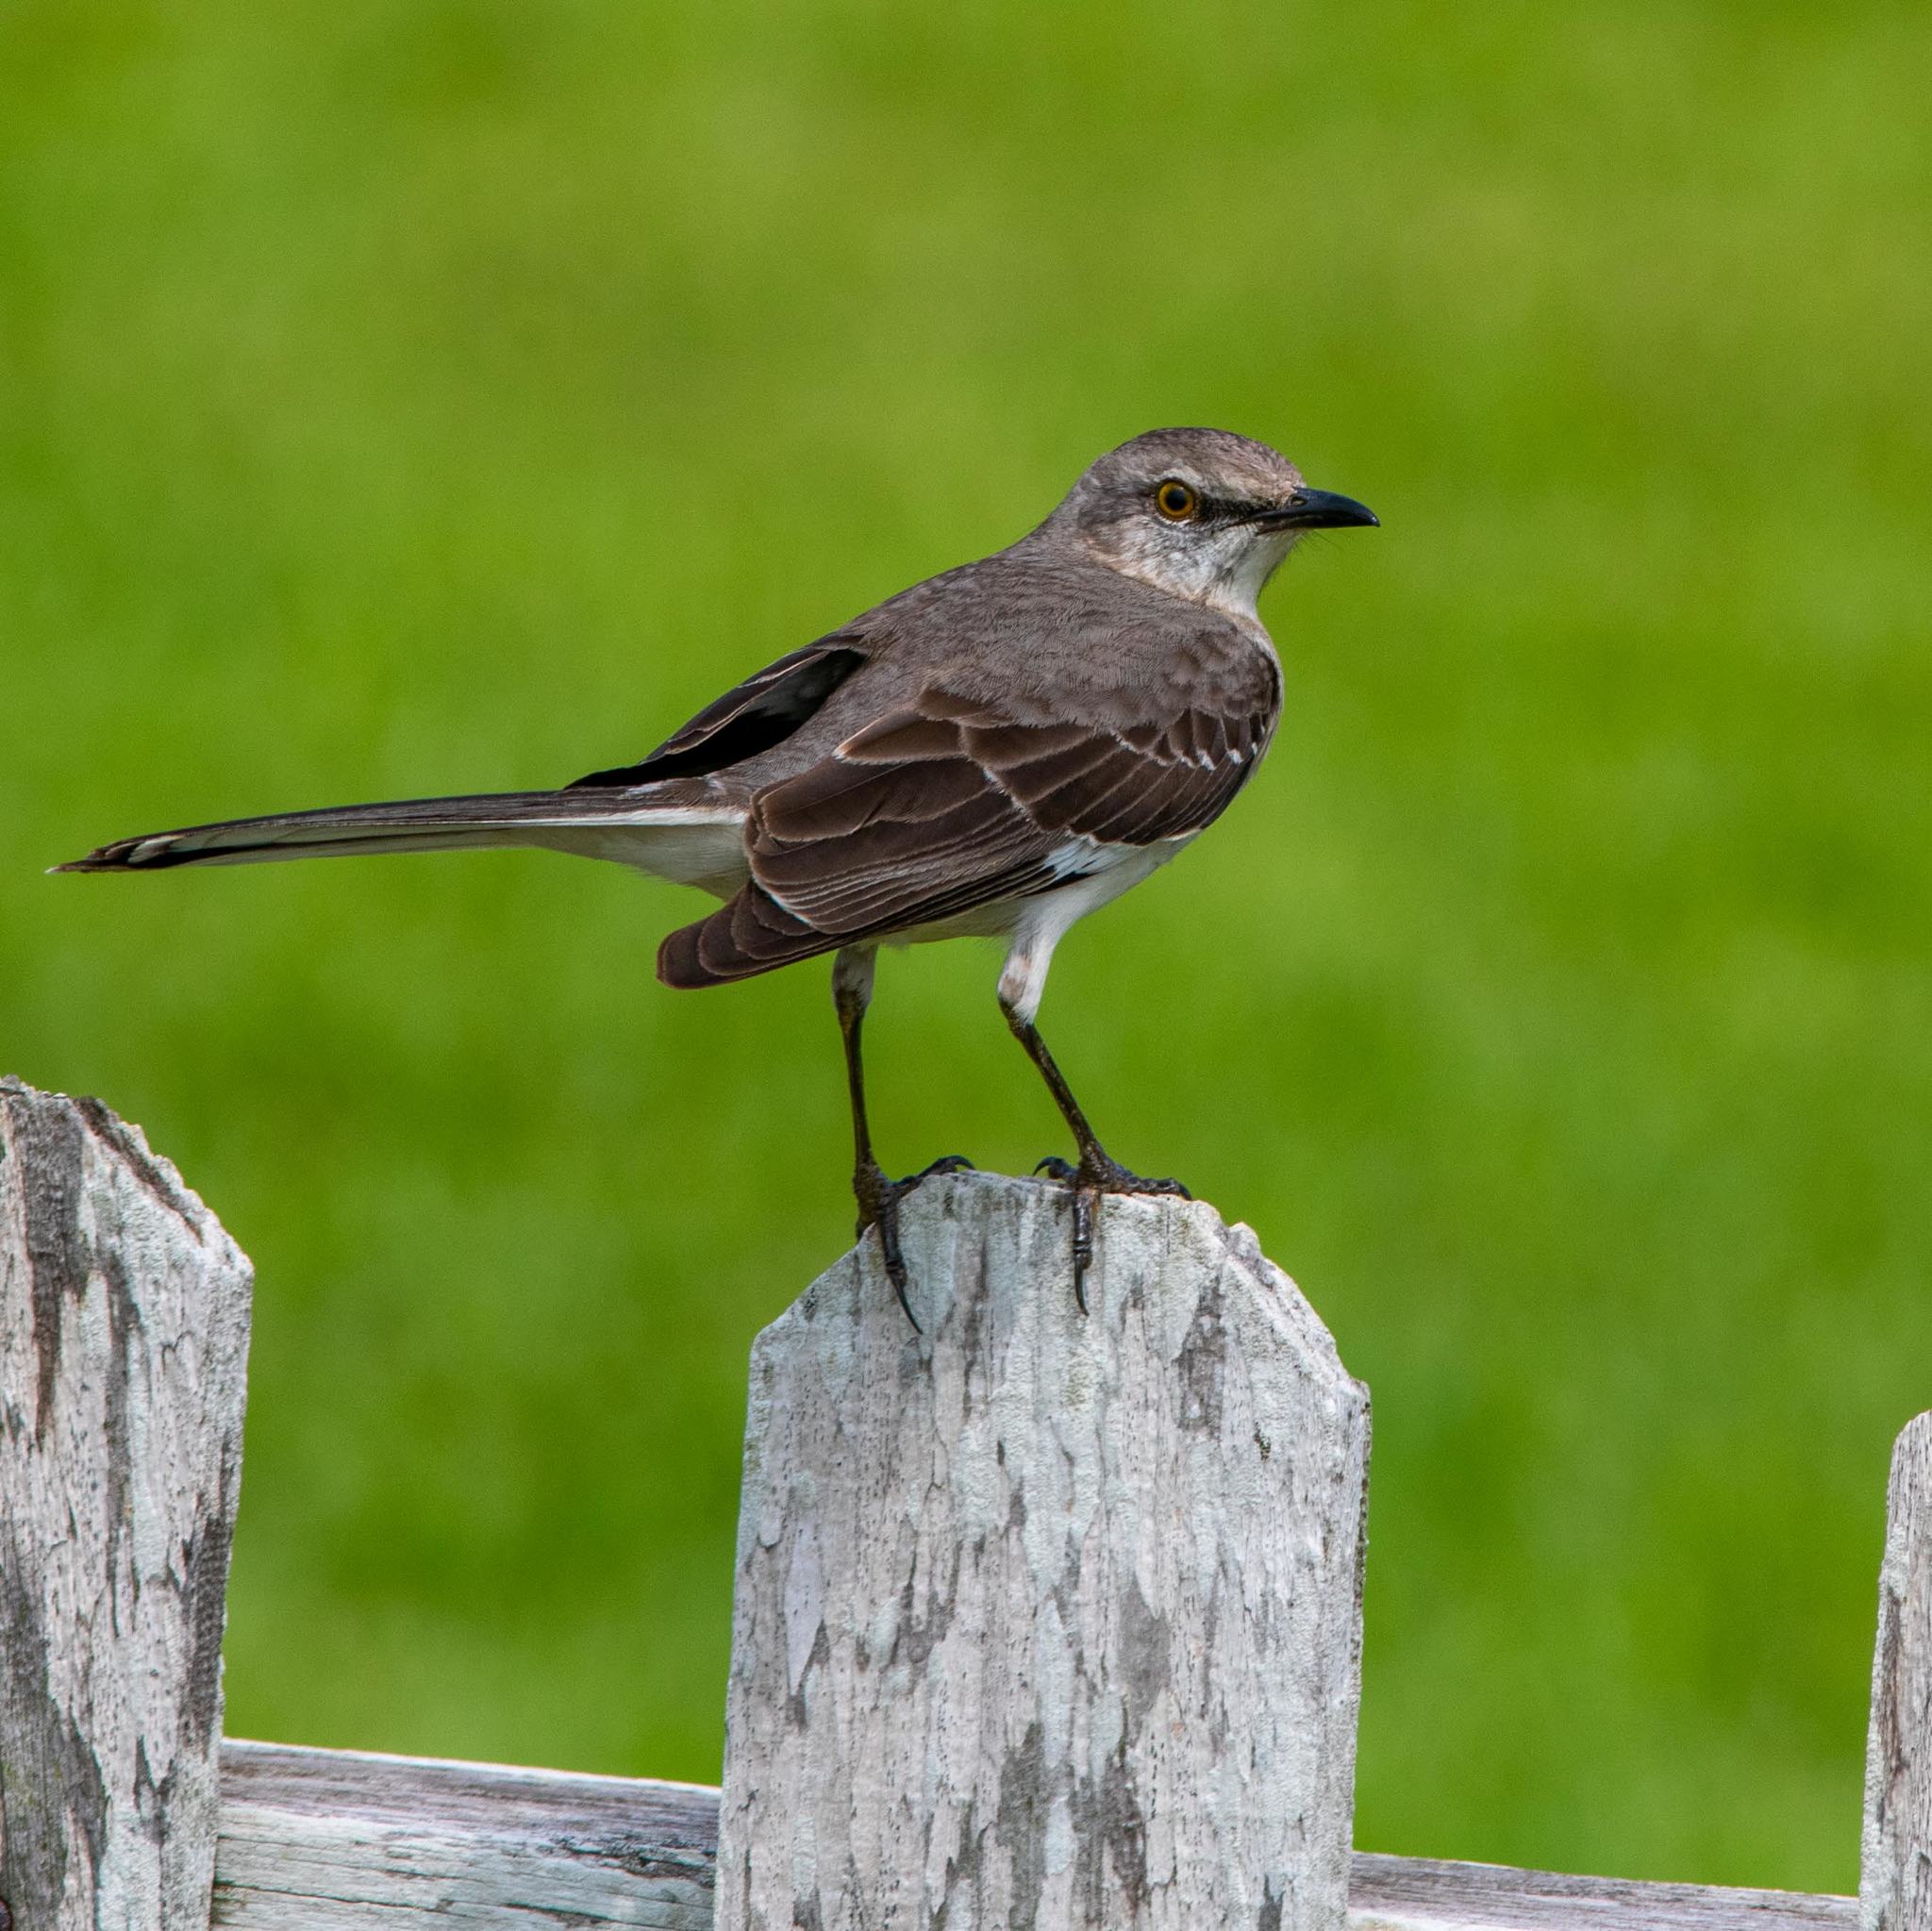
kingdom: Animalia
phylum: Chordata
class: Aves
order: Passeriformes
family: Mimidae
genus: Mimus
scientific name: Mimus polyglottos
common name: Northern mockingbird
